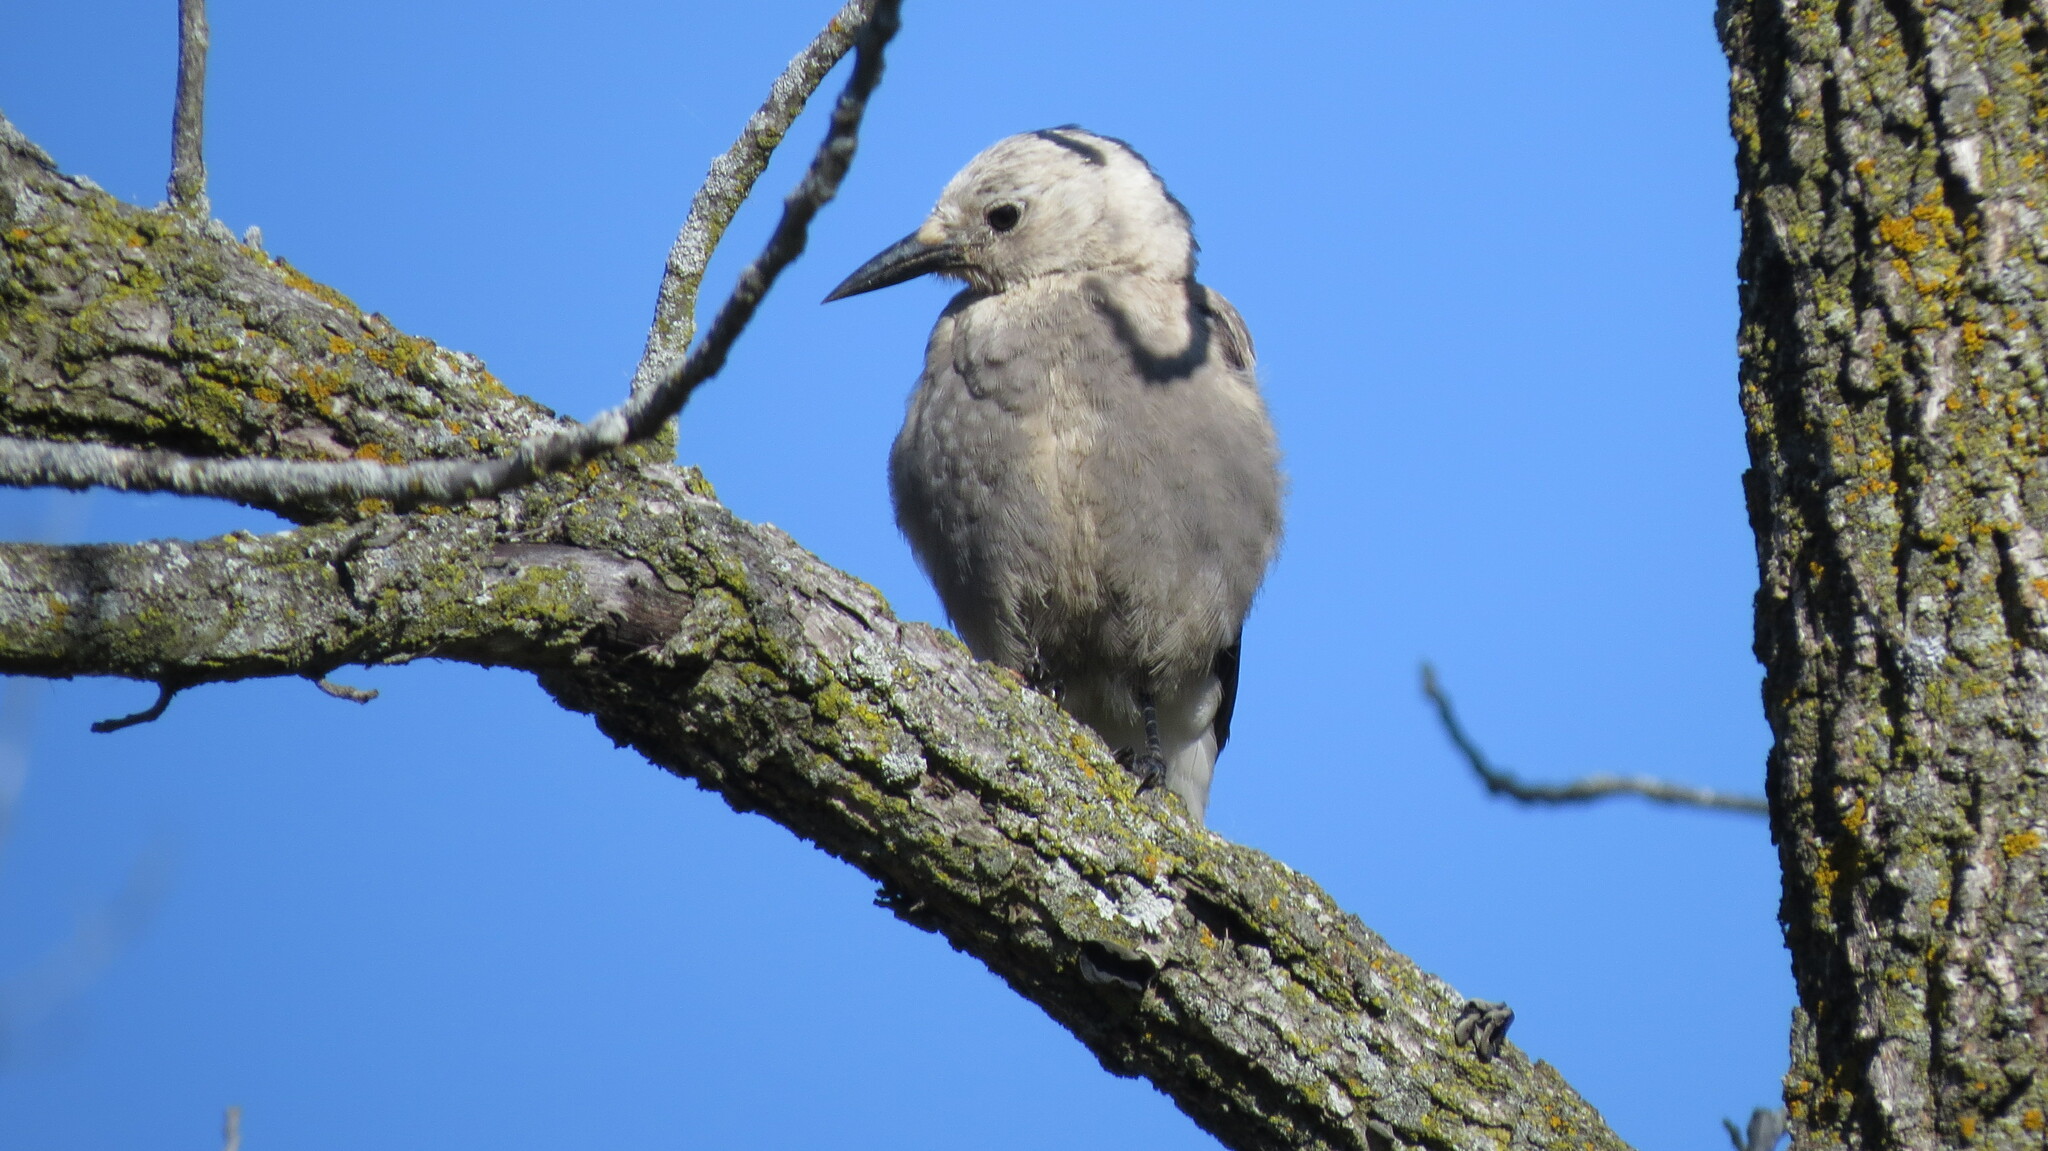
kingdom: Animalia
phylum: Chordata
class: Aves
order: Passeriformes
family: Corvidae
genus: Nucifraga
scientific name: Nucifraga columbiana
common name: Clark's nutcracker
